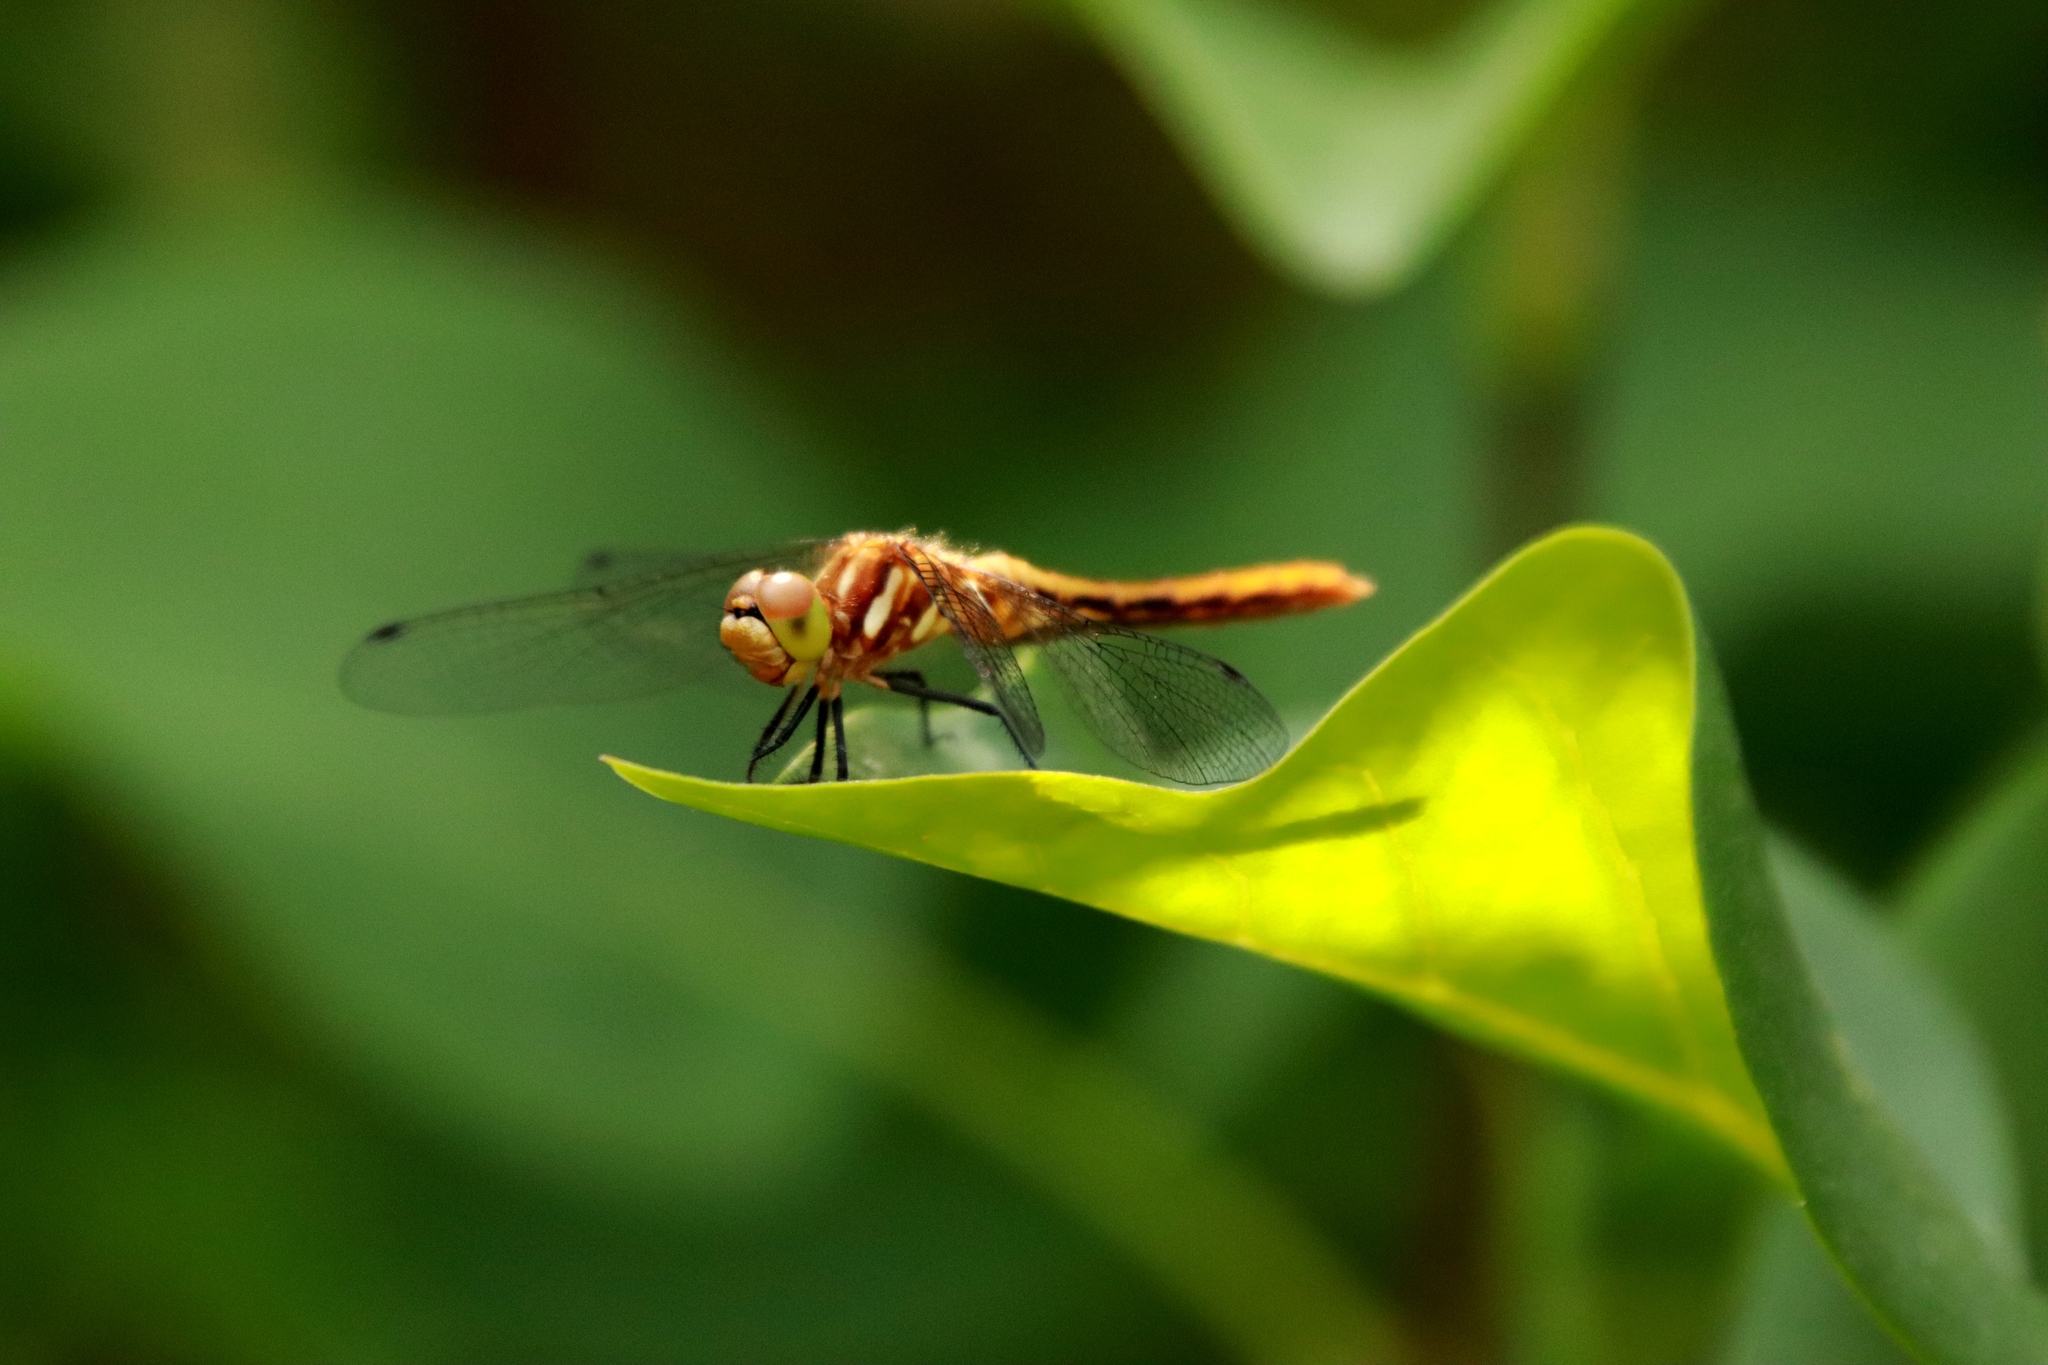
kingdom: Animalia
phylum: Arthropoda
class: Insecta
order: Odonata
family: Libellulidae
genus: Sympetrum
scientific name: Sympetrum pallipes
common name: Striped meadowhawk
